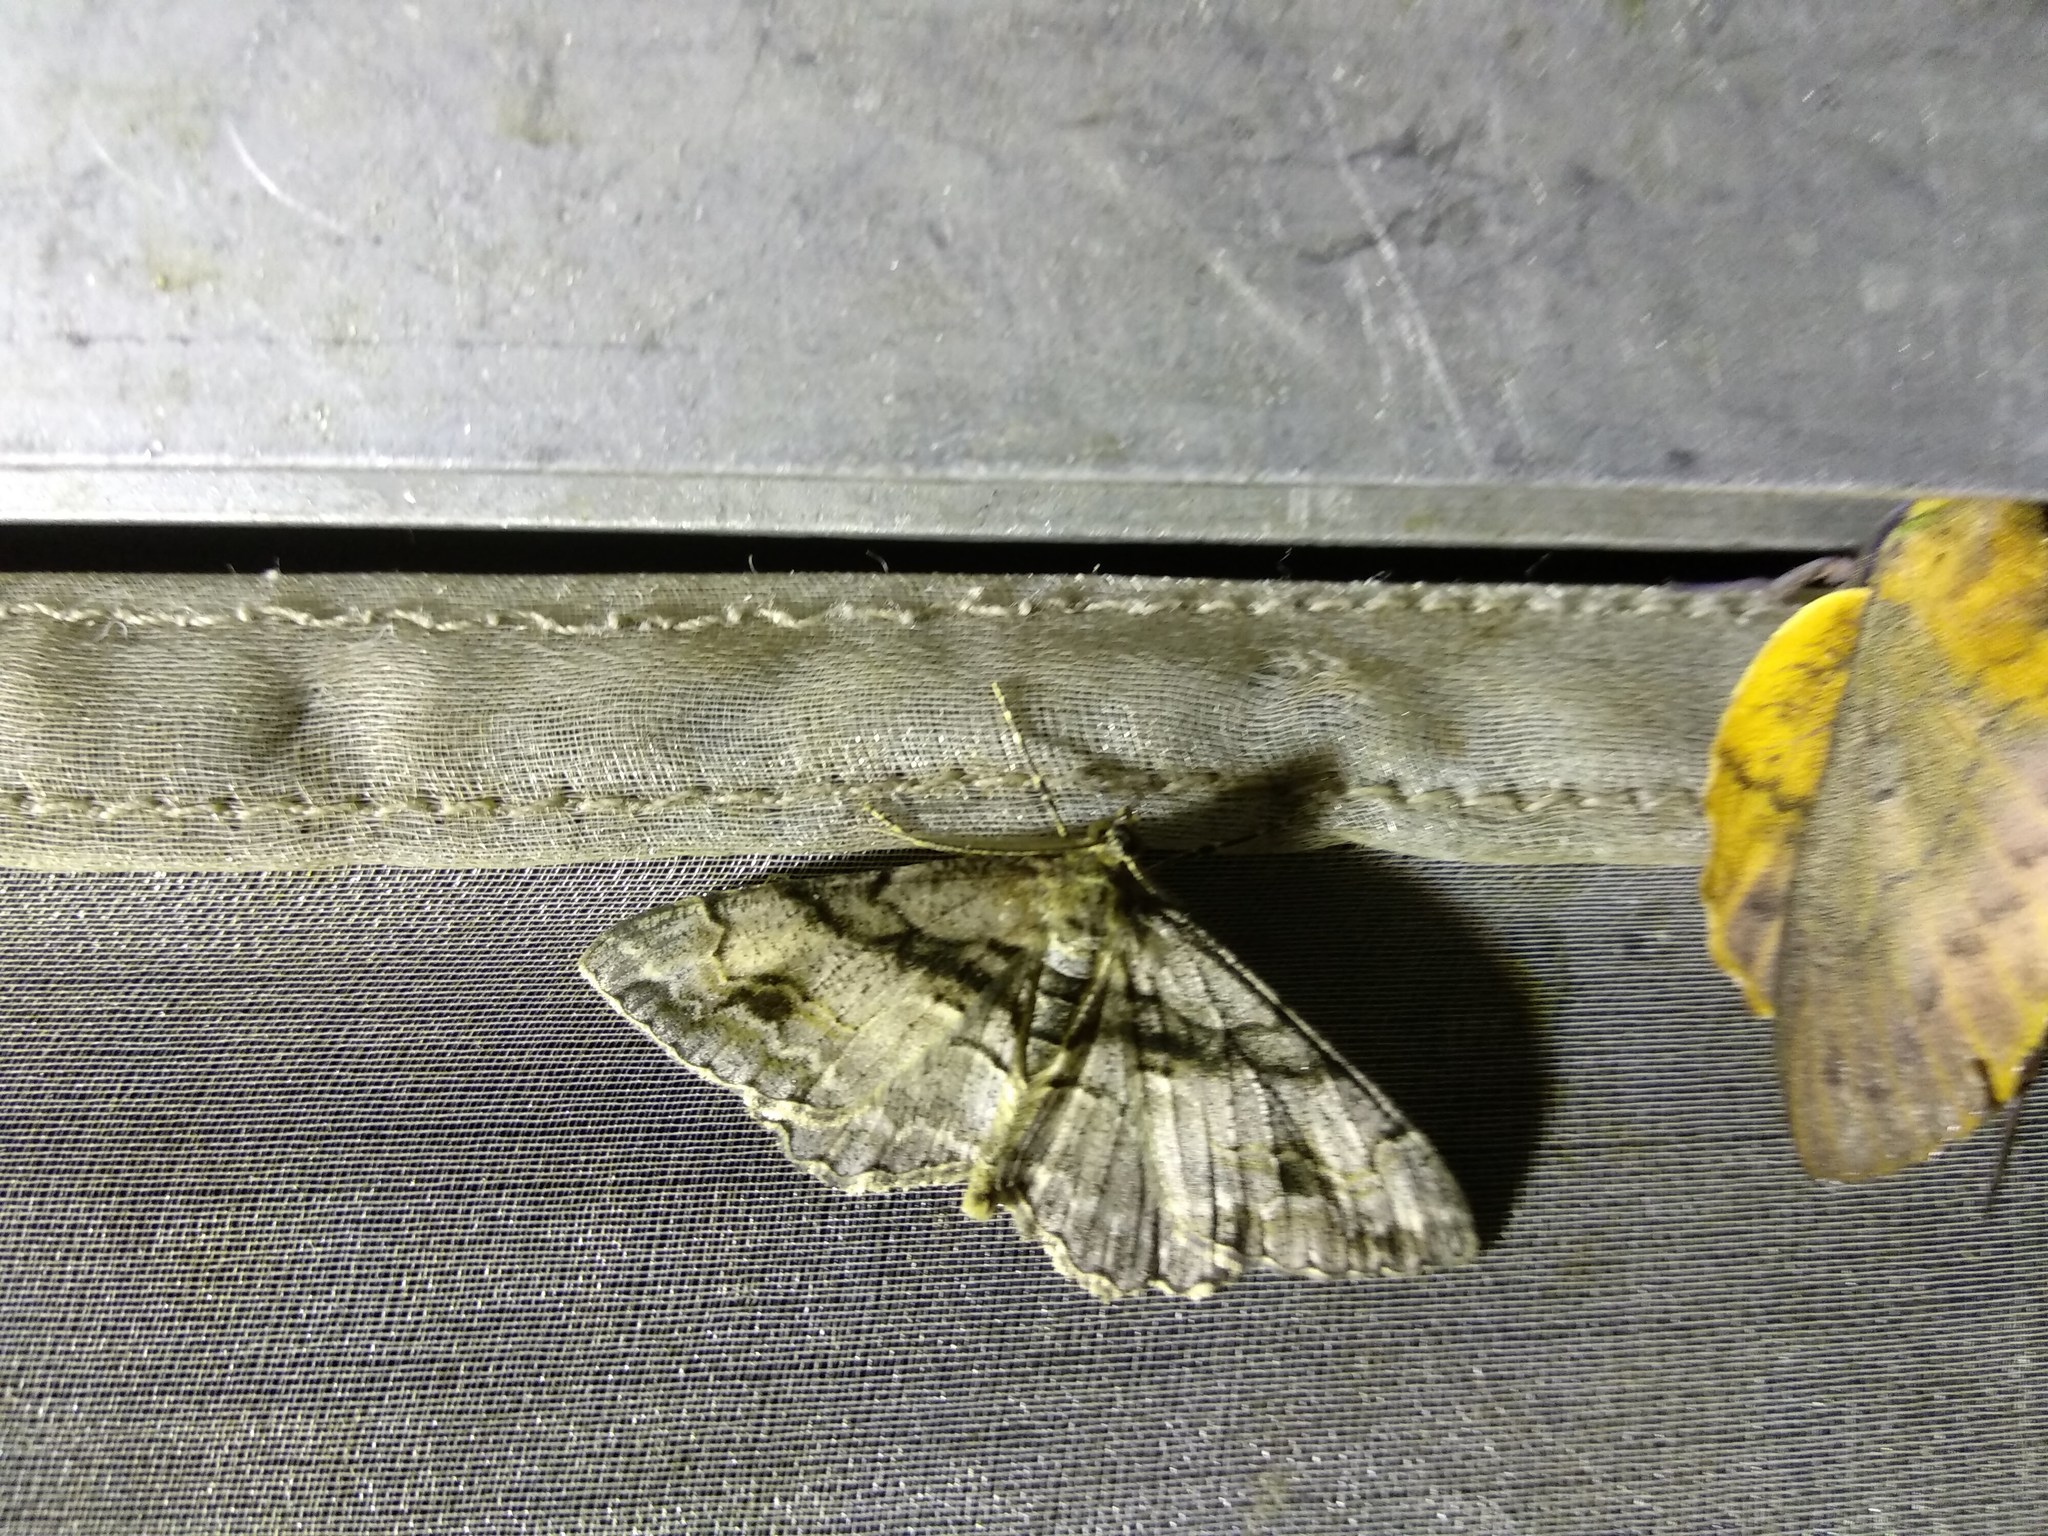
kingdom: Animalia
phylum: Arthropoda
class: Insecta
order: Lepidoptera
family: Geometridae
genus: Alcis
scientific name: Alcis deversata
